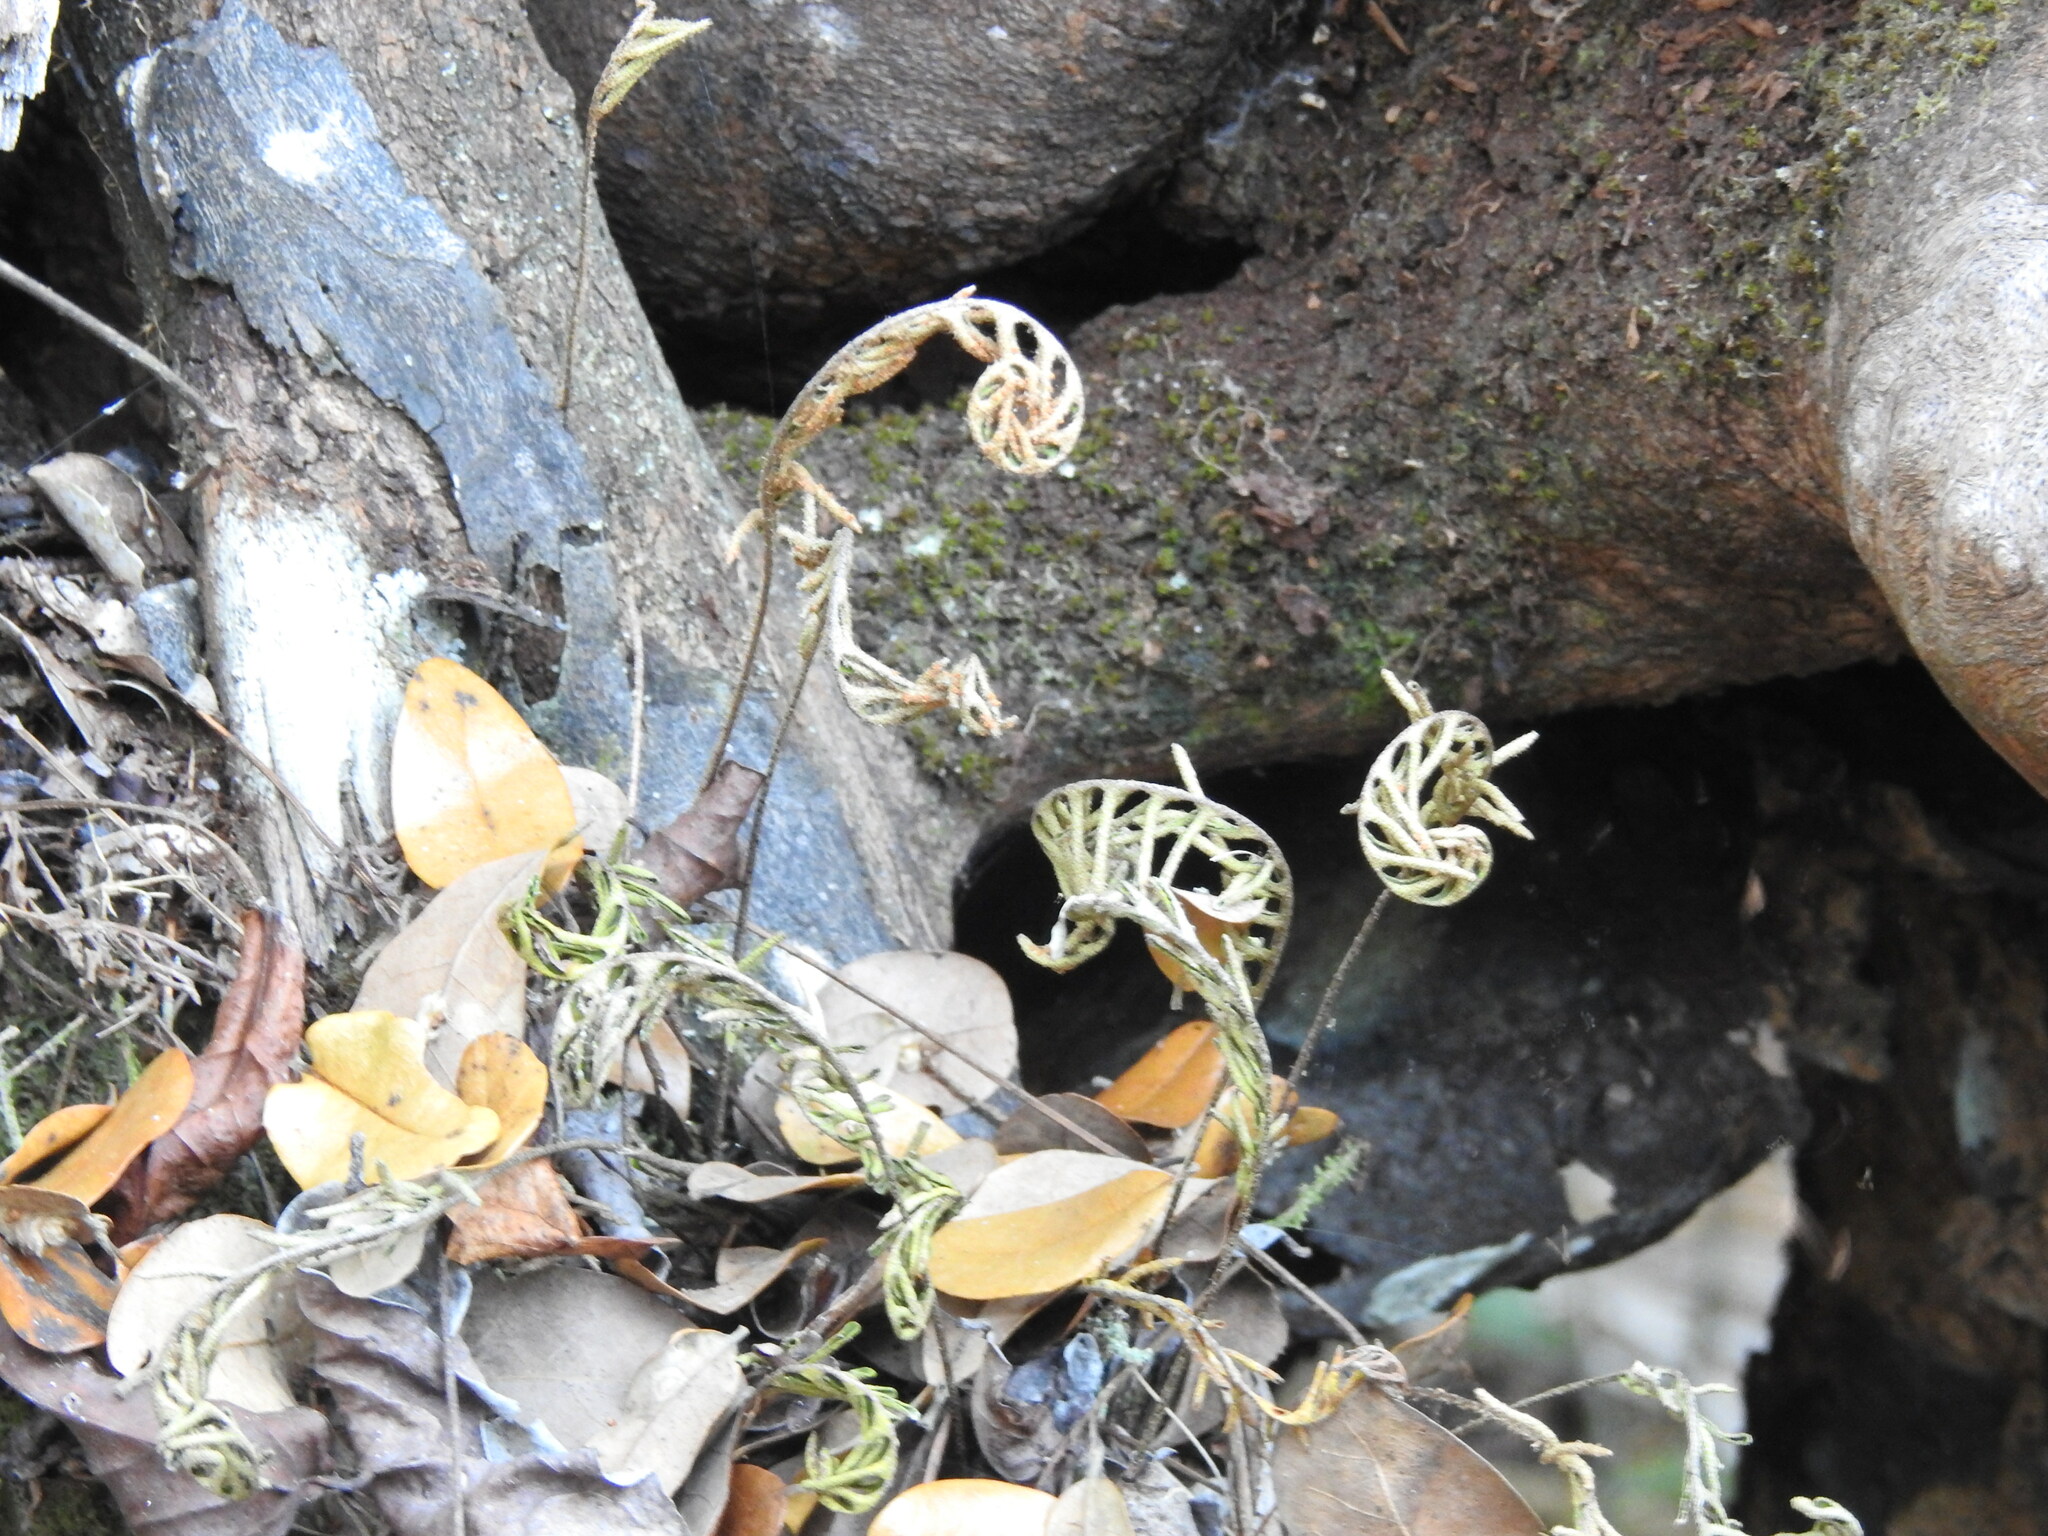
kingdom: Plantae
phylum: Tracheophyta
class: Polypodiopsida
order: Polypodiales
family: Polypodiaceae
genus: Pleopeltis
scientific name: Pleopeltis michauxiana
